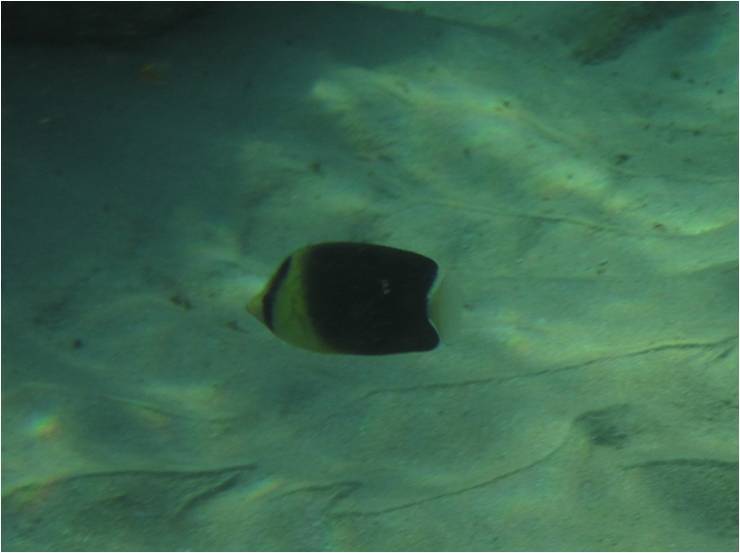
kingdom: Animalia
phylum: Chordata
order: Perciformes
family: Chaetodontidae
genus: Chaetodon
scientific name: Chaetodon blackburnii
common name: Blackburn's butterflyfish
